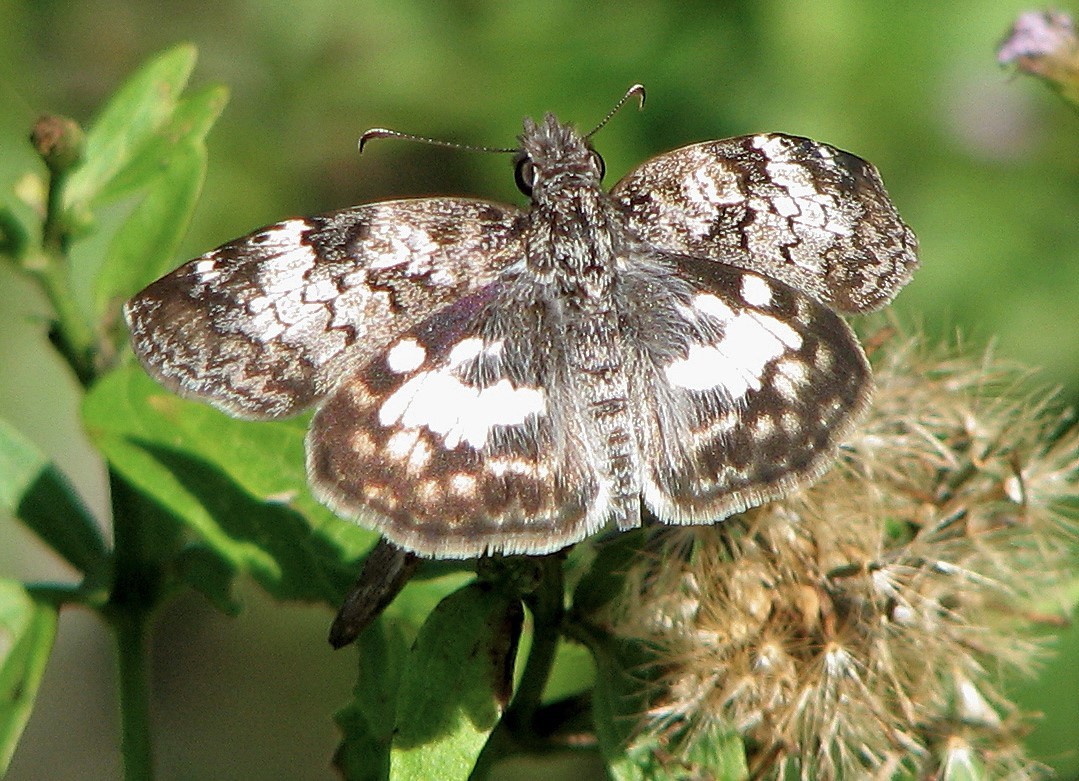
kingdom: Animalia
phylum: Arthropoda
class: Insecta
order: Lepidoptera
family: Hesperiidae
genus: Chiomara
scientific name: Chiomara asychis
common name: White-patterned skipper
